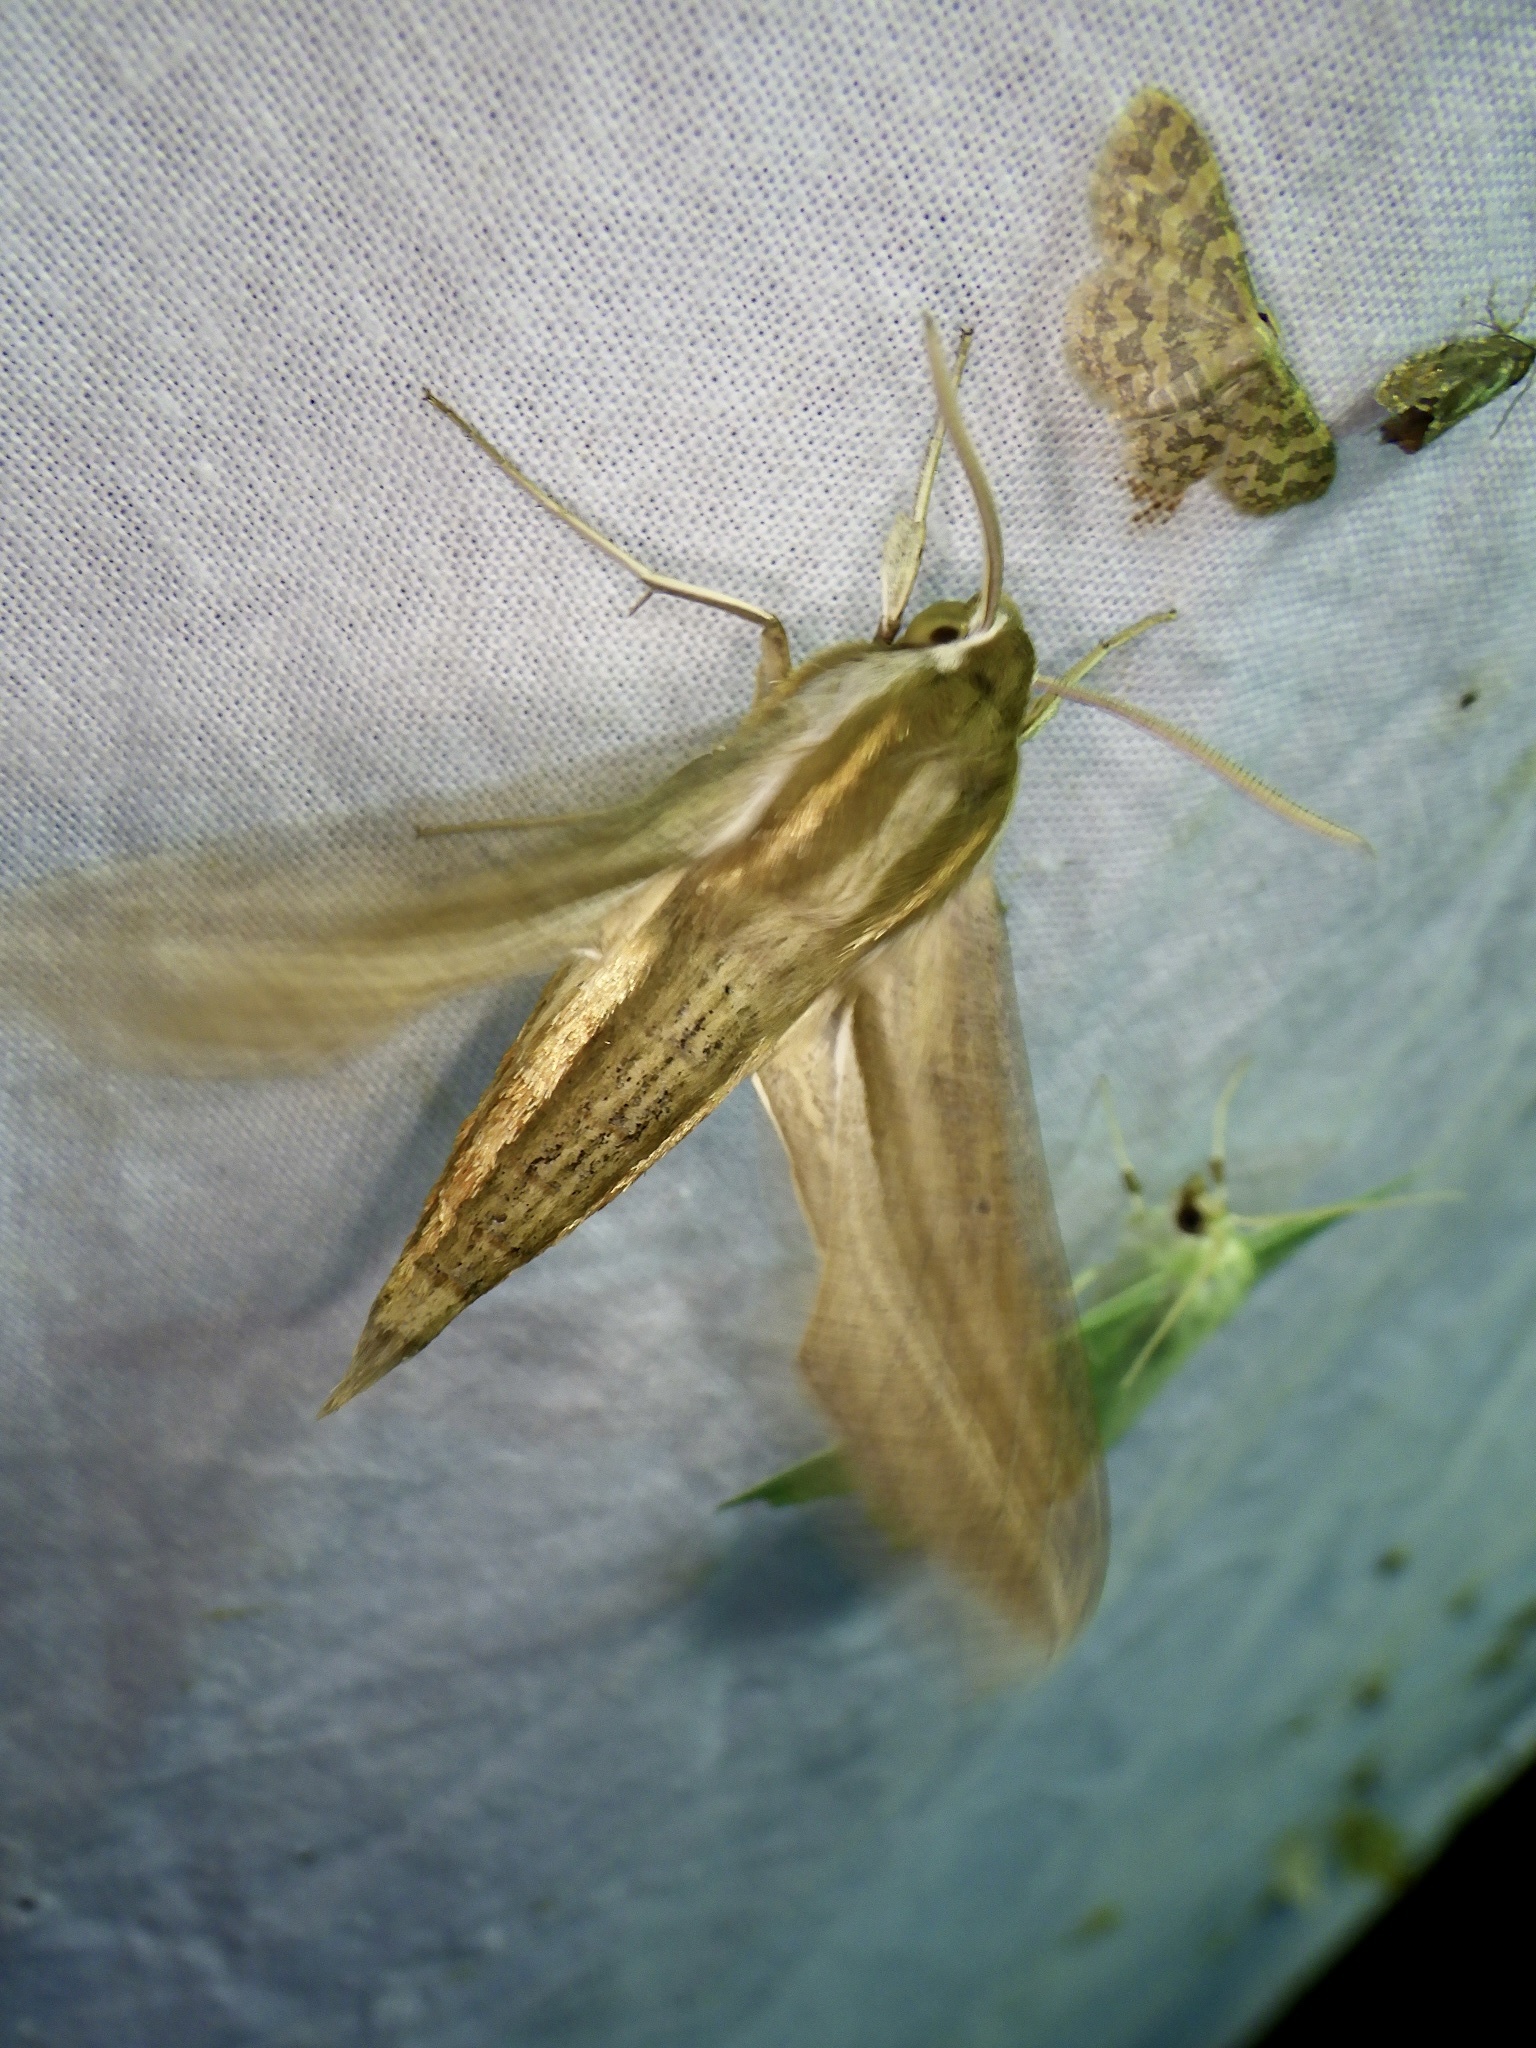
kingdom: Animalia
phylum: Arthropoda
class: Insecta
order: Lepidoptera
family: Sphingidae
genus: Theretra
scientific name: Theretra japonica
